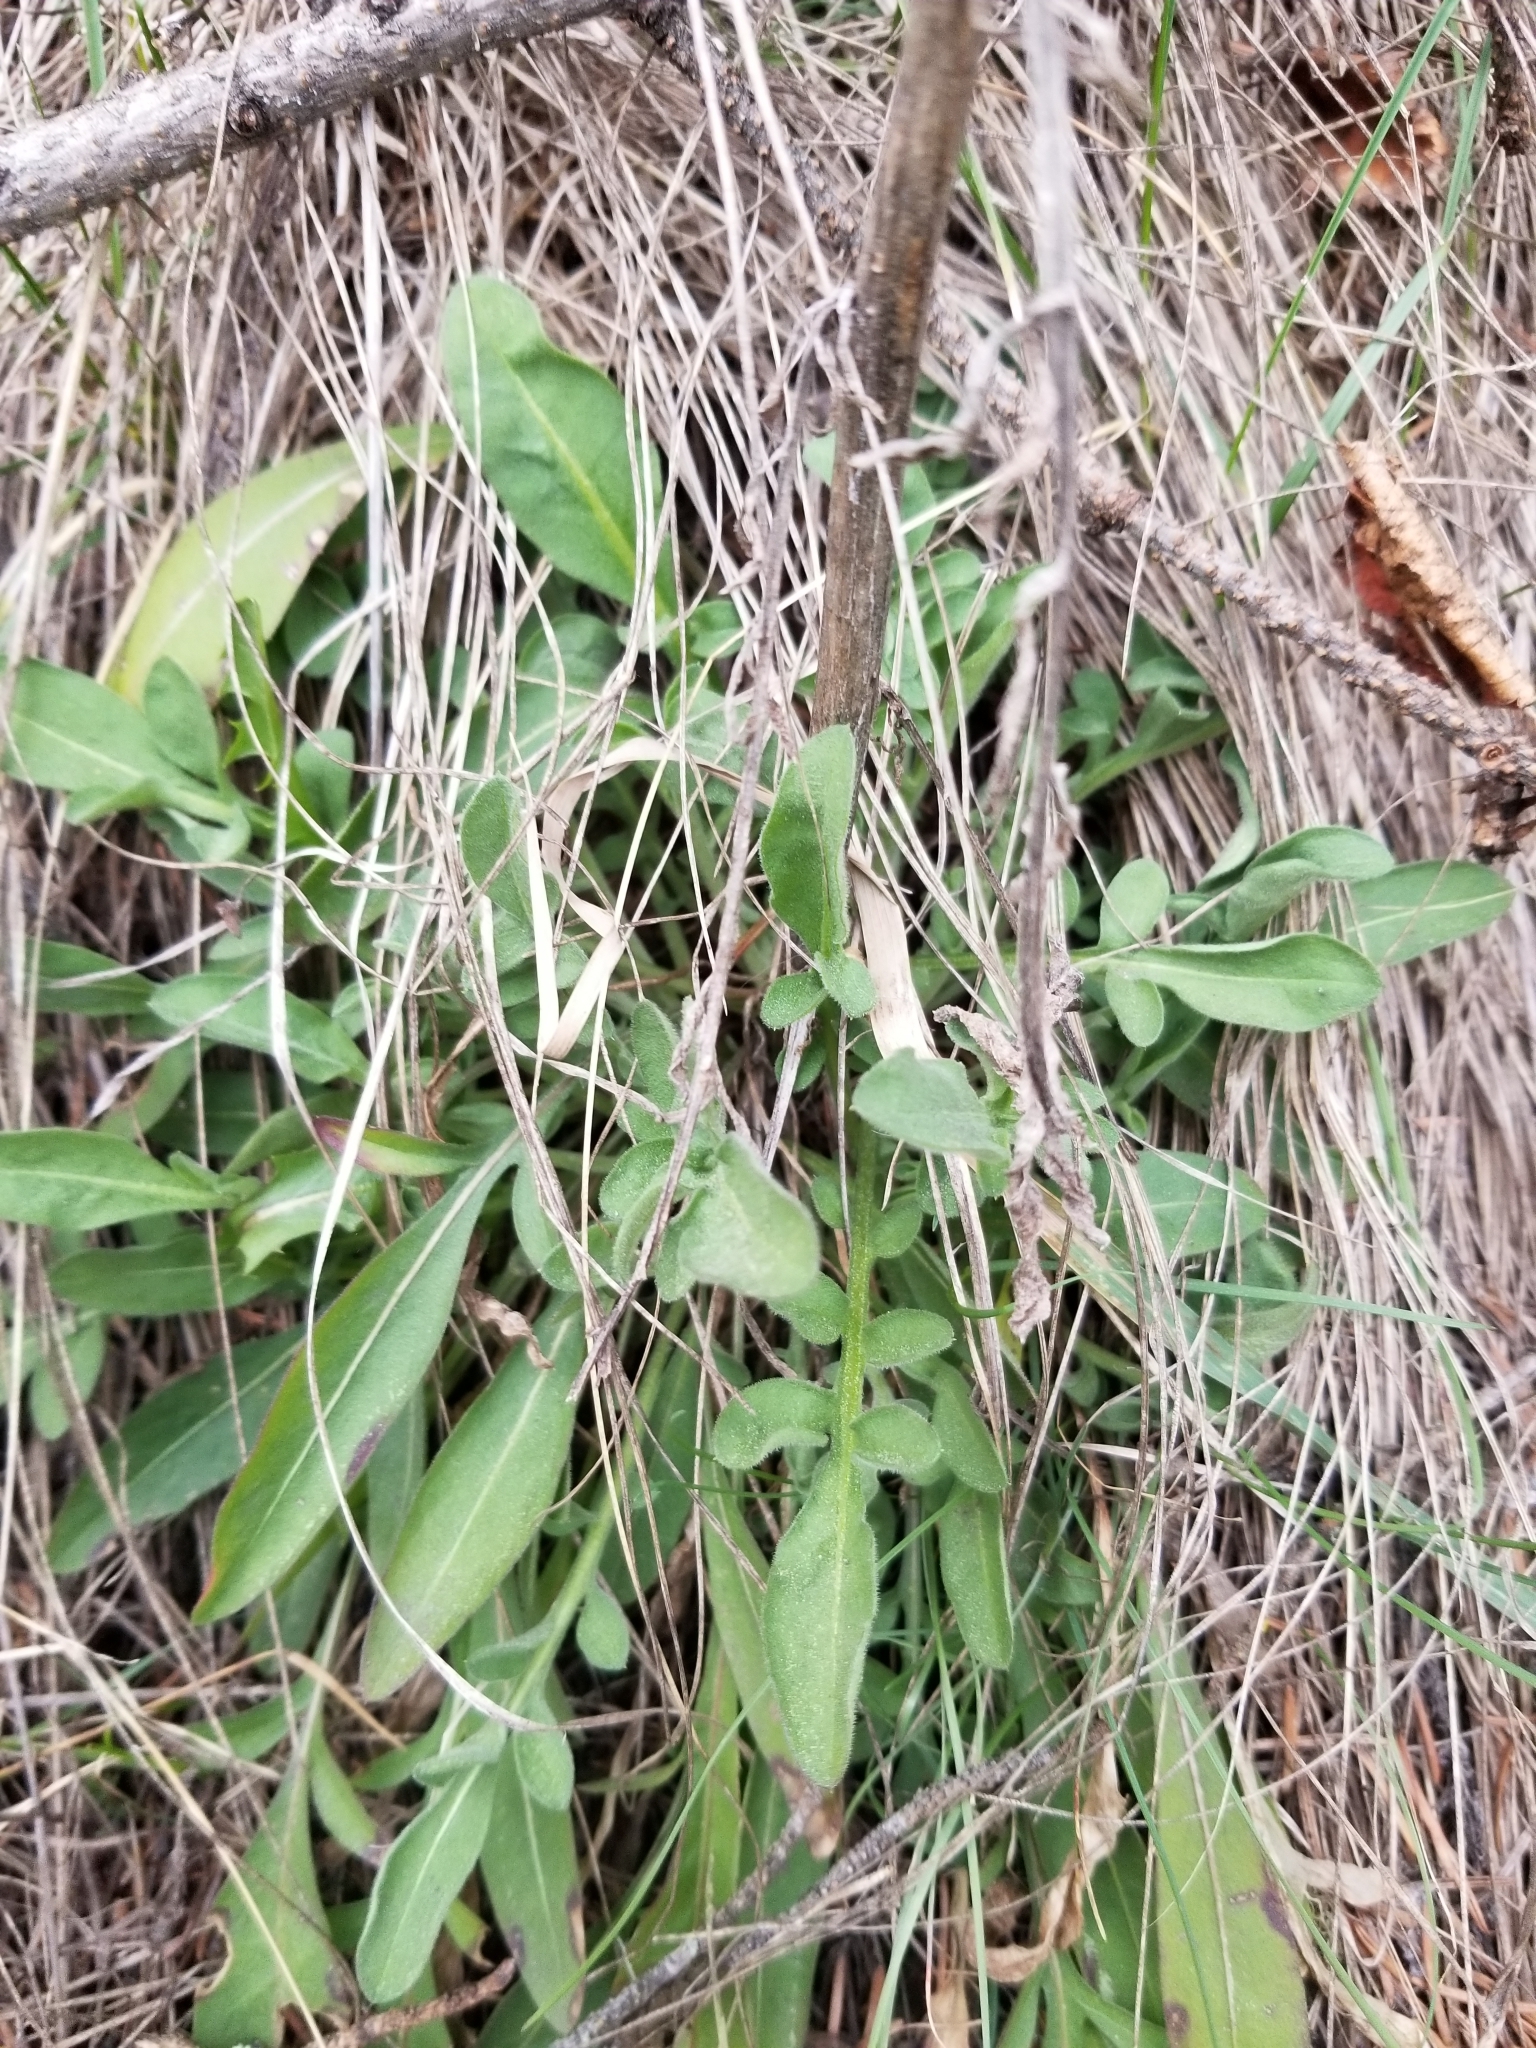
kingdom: Plantae
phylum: Tracheophyta
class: Magnoliopsida
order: Asterales
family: Asteraceae
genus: Centaurea
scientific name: Centaurea stoebe
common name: Spotted knapweed
